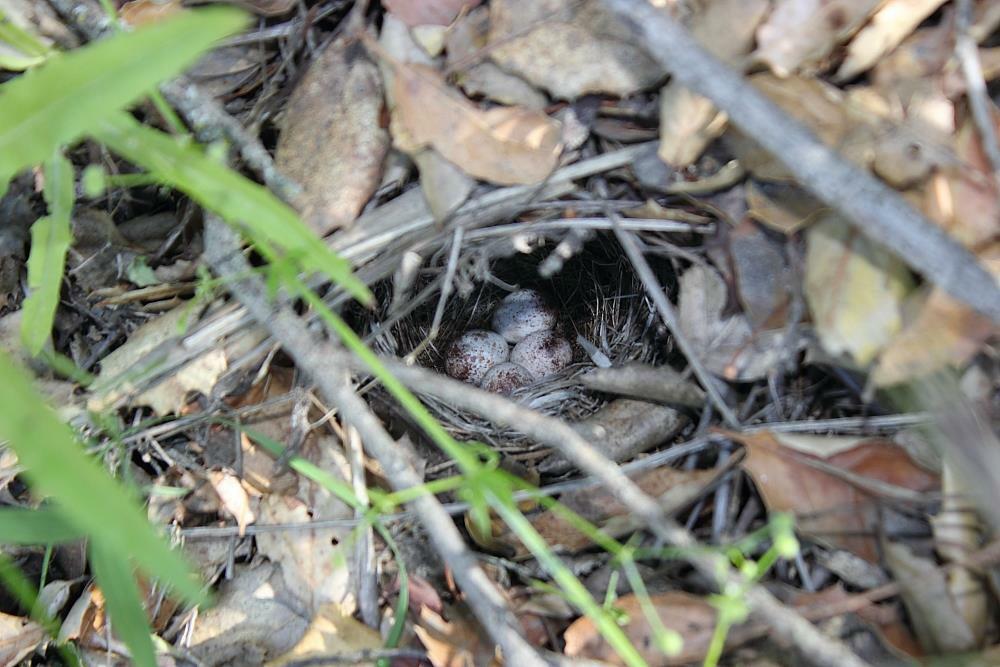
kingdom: Animalia
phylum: Chordata
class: Aves
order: Passeriformes
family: Parulidae
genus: Leiothlypis
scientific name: Leiothlypis celata
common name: Orange-crowned warbler
